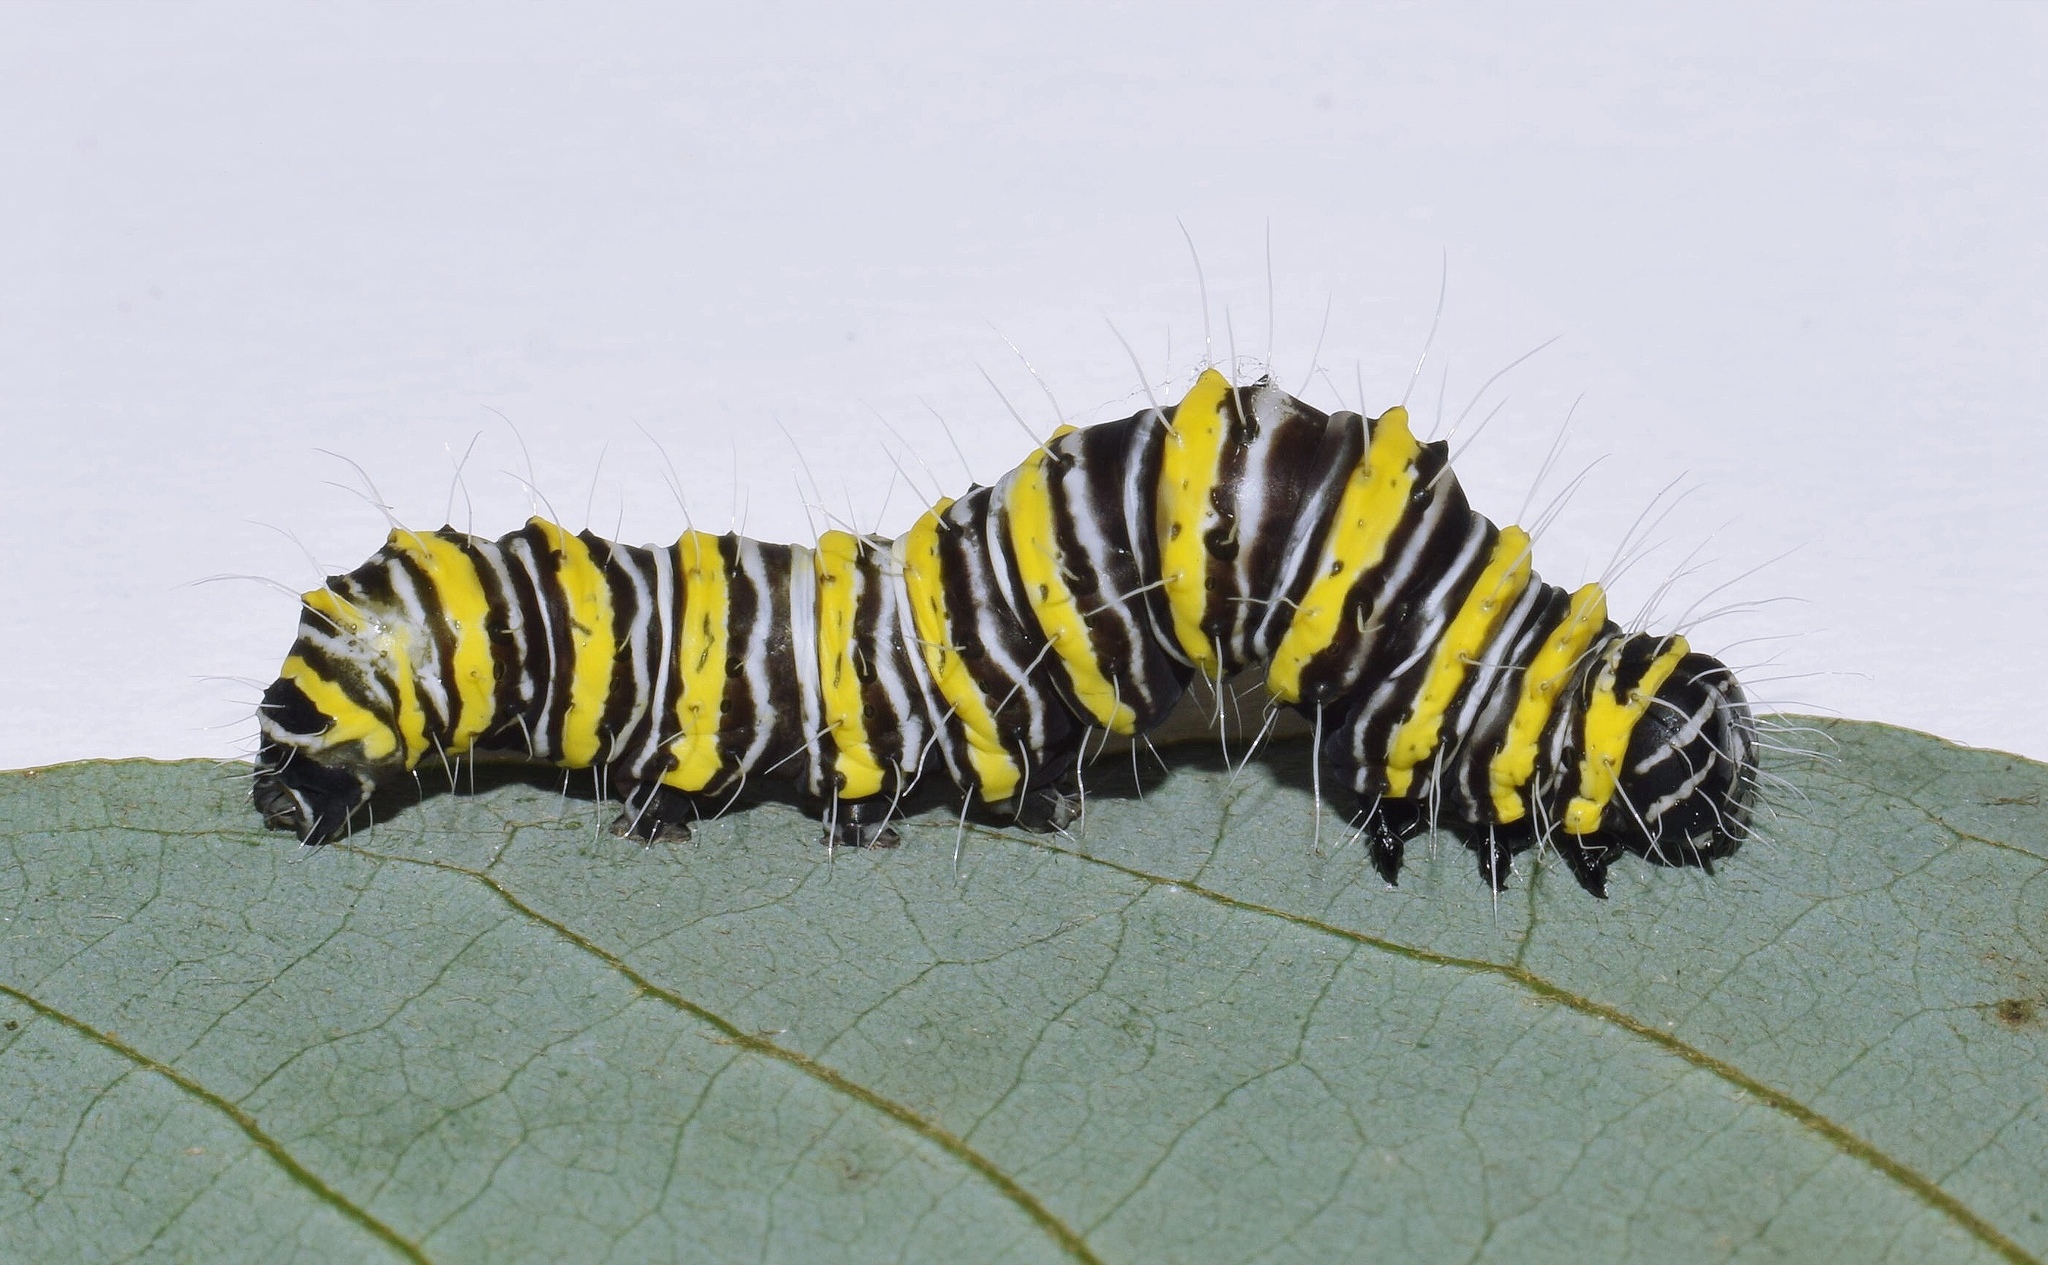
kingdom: Animalia
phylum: Arthropoda
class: Insecta
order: Lepidoptera
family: Erebidae
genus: Egybolis
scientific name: Egybolis vaillantina
